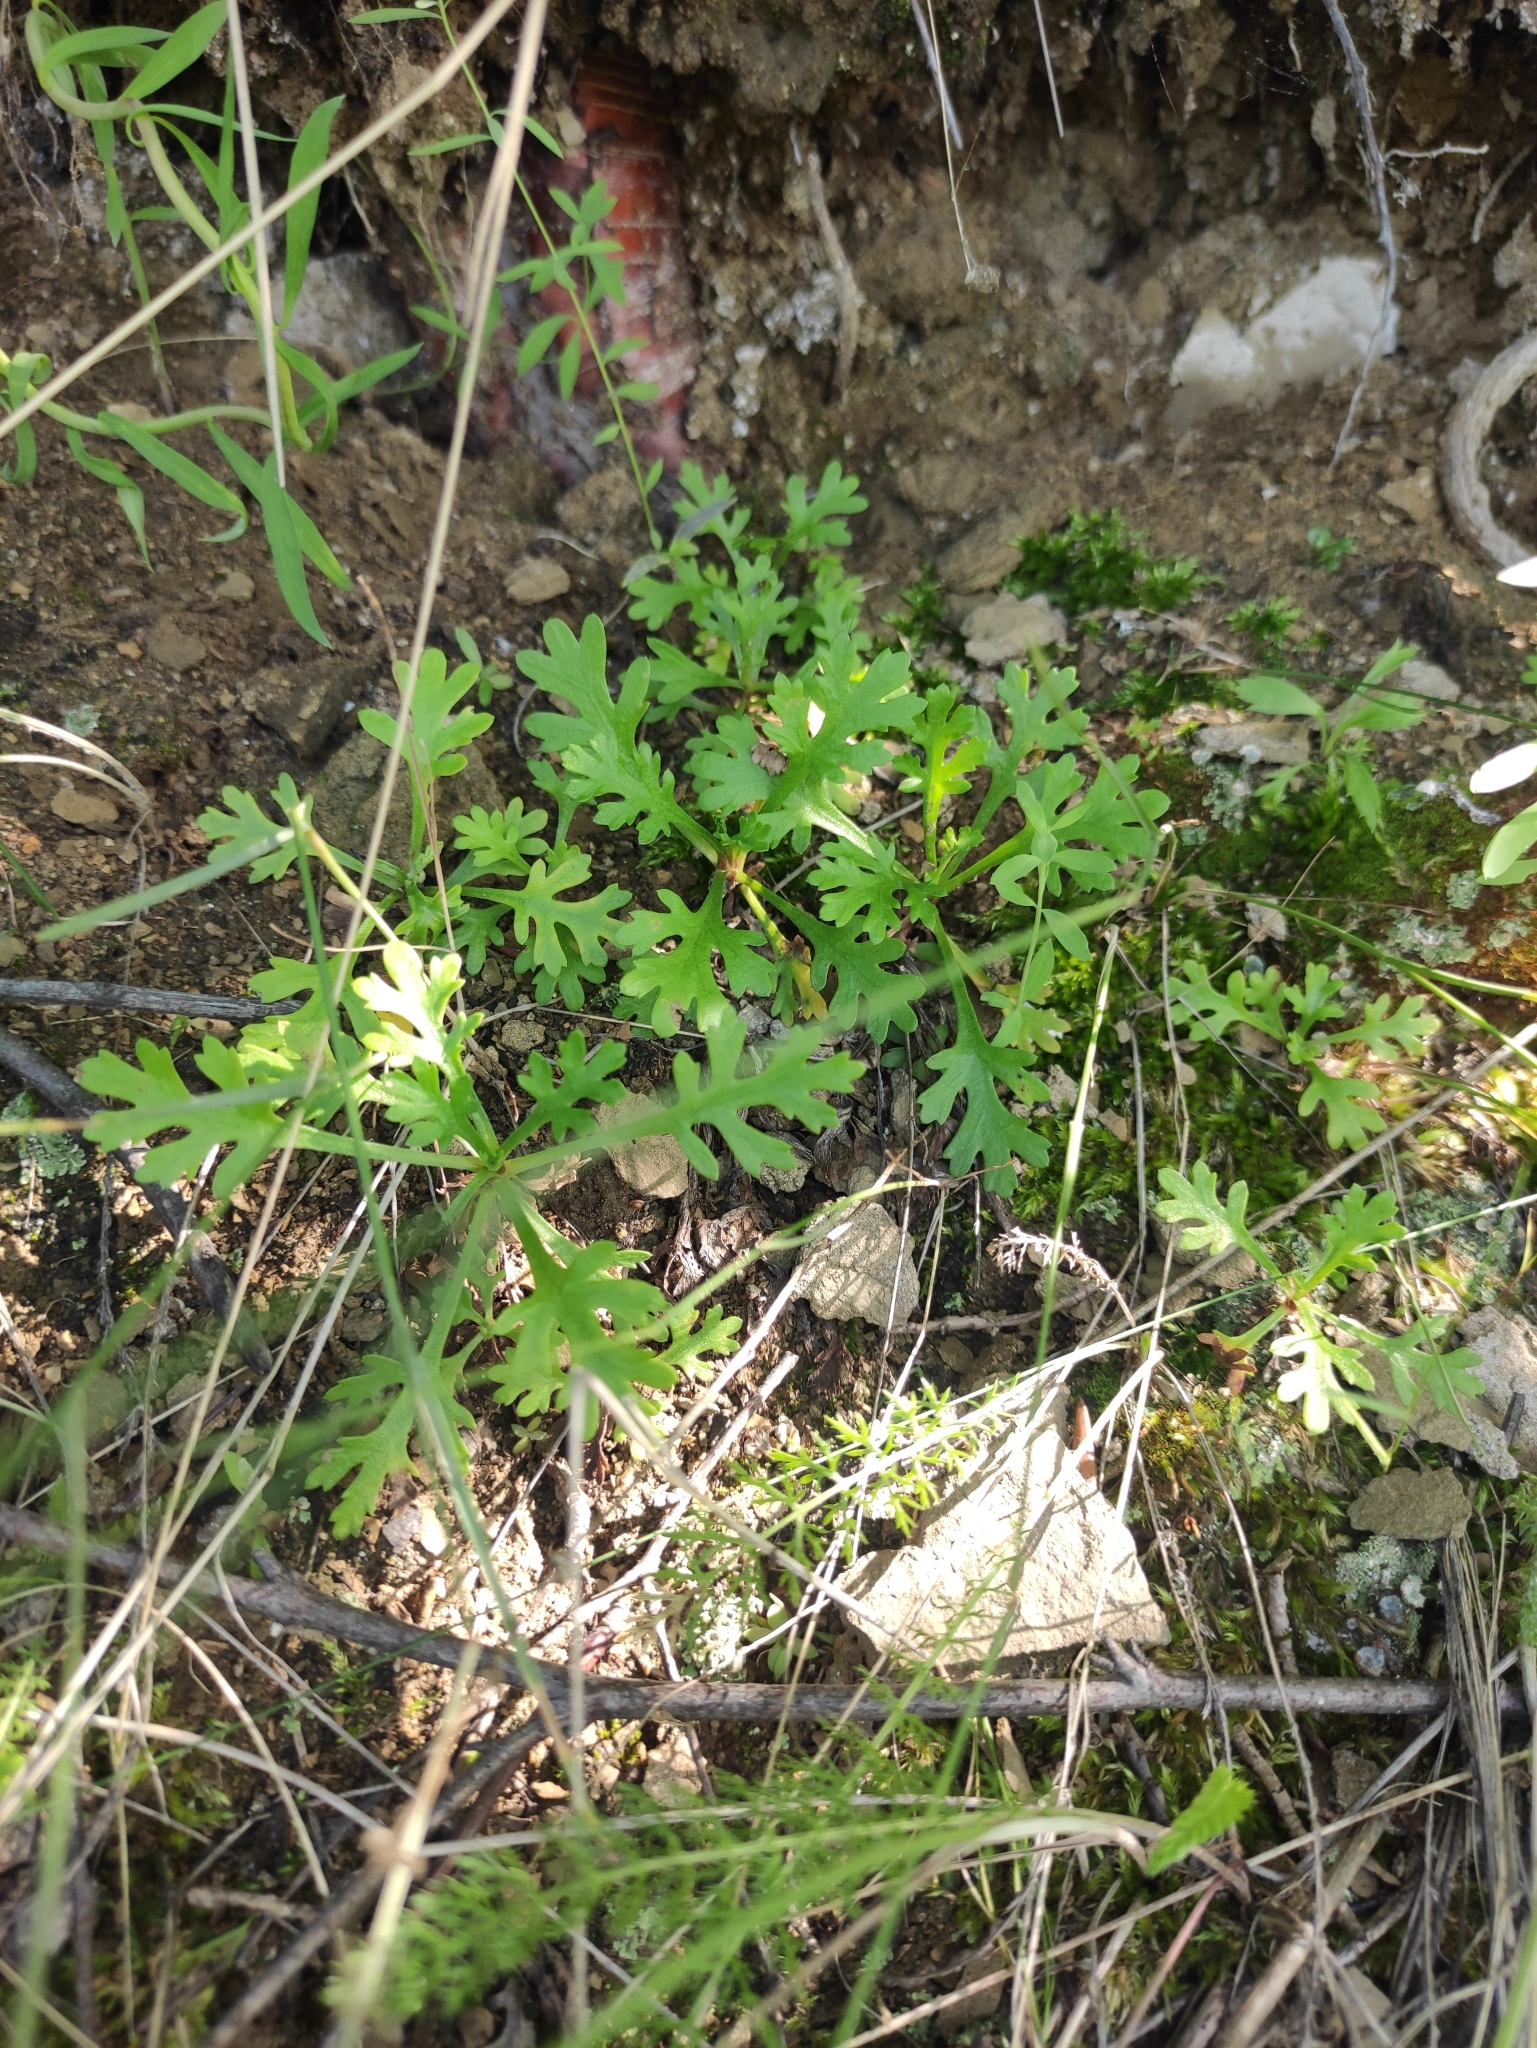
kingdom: Plantae
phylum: Tracheophyta
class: Magnoliopsida
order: Asterales
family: Asteraceae
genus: Chrysanthemum
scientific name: Chrysanthemum zawadzkii
